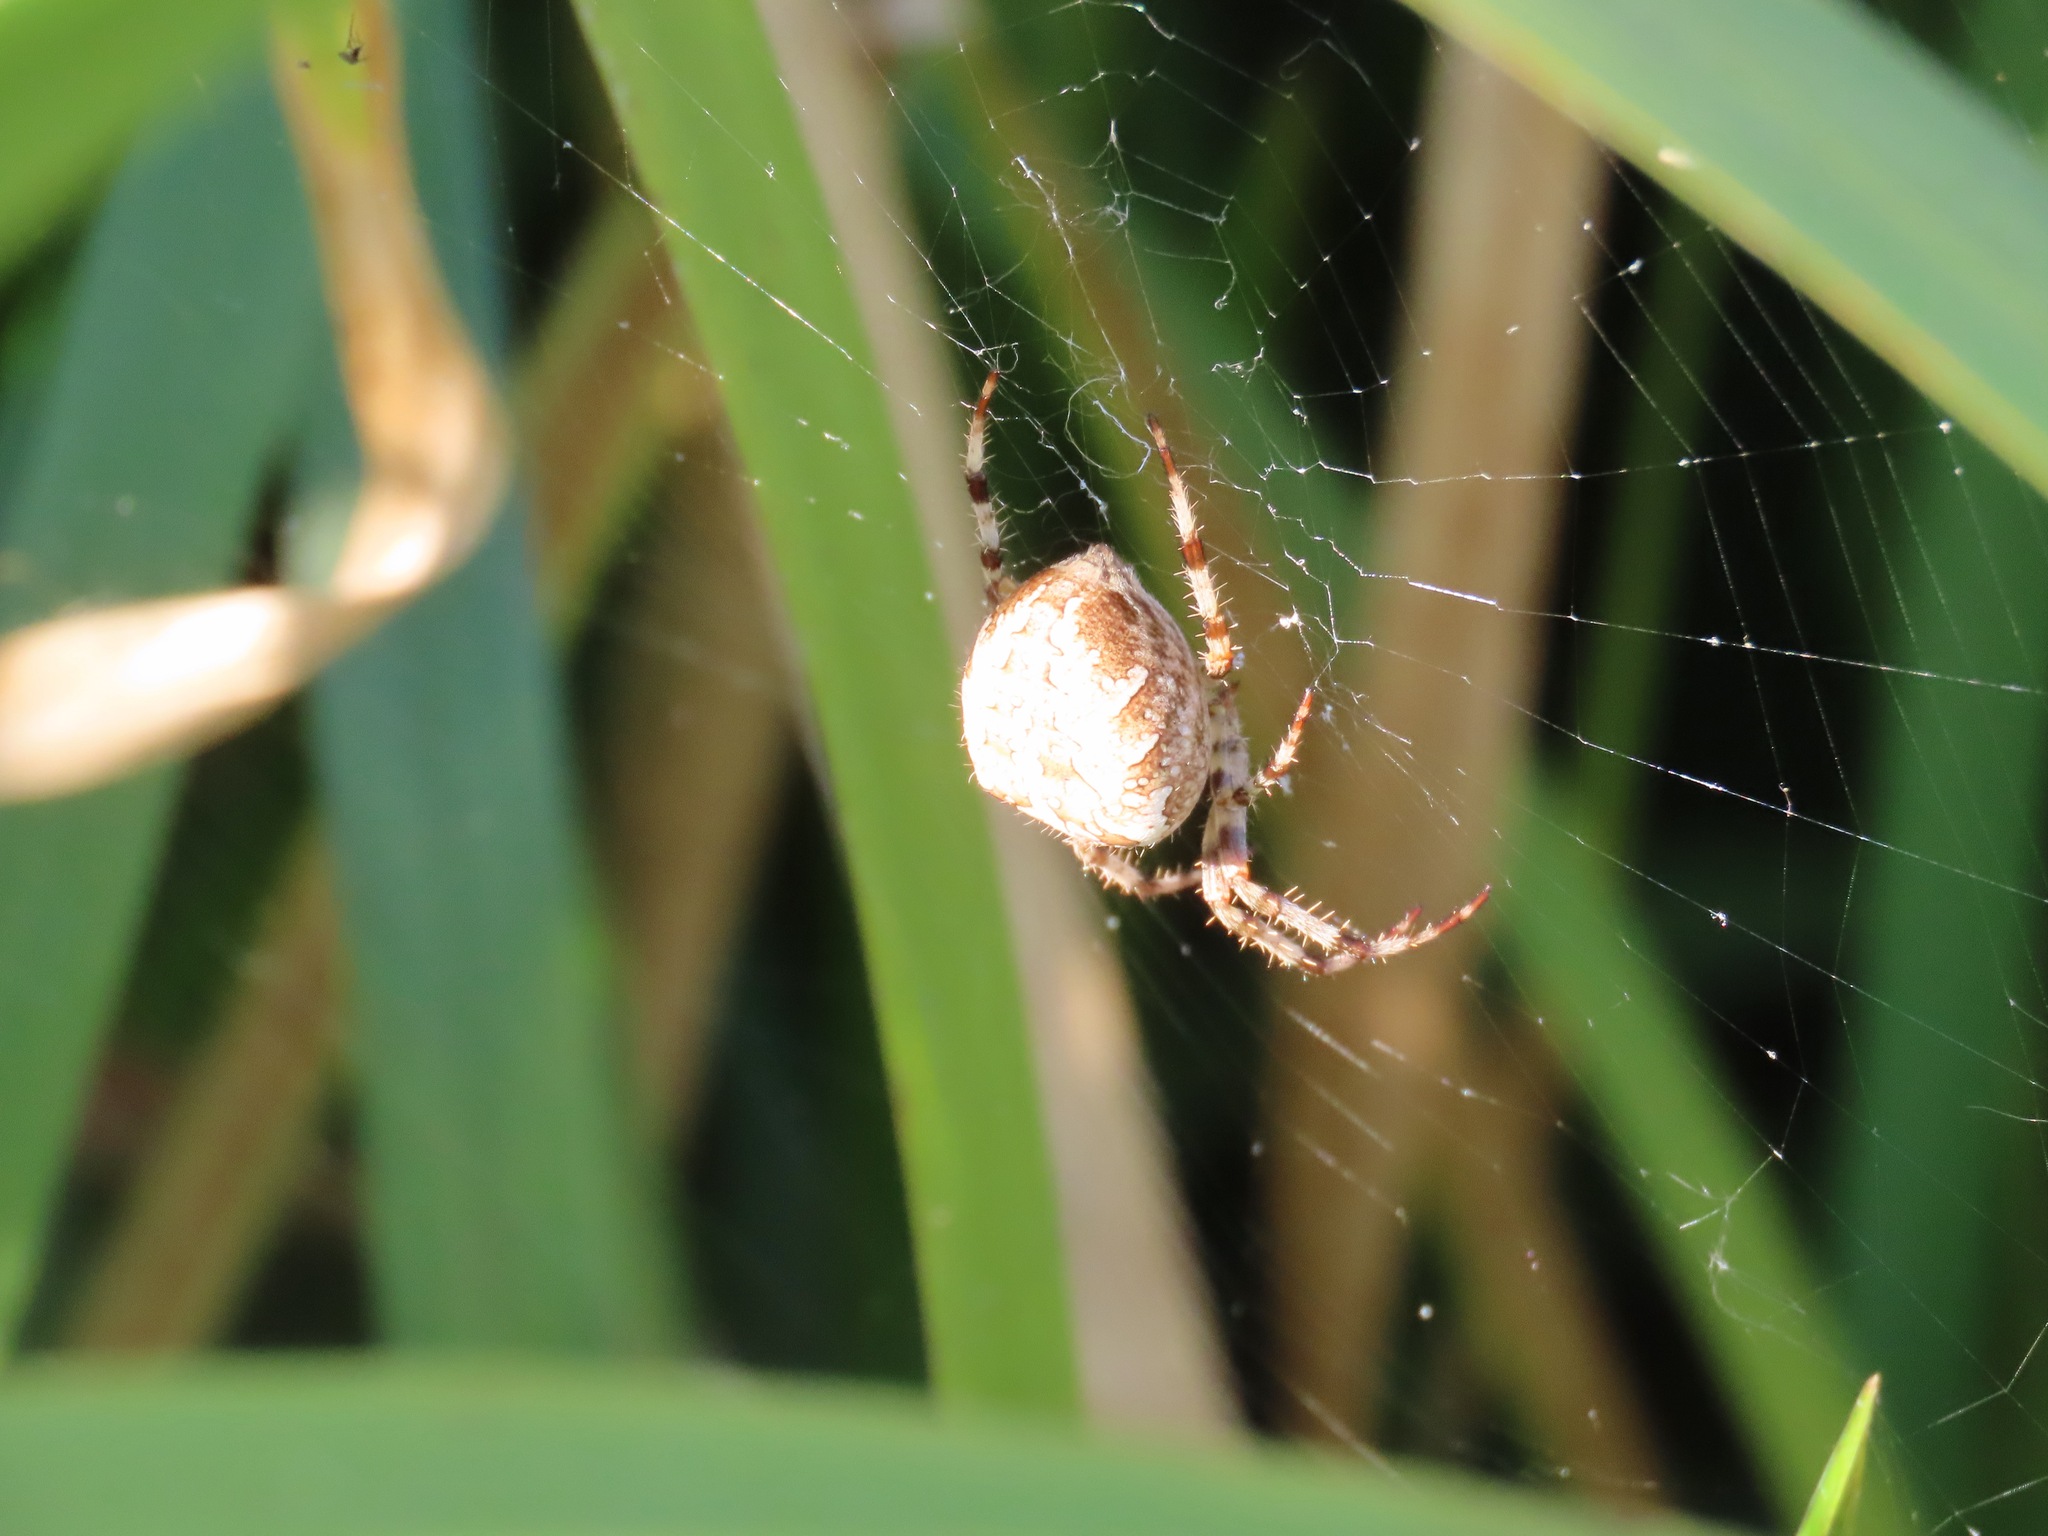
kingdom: Animalia
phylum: Arthropoda
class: Arachnida
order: Araneae
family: Araneidae
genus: Araneus
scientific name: Araneus diadematus
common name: Cross orbweaver
